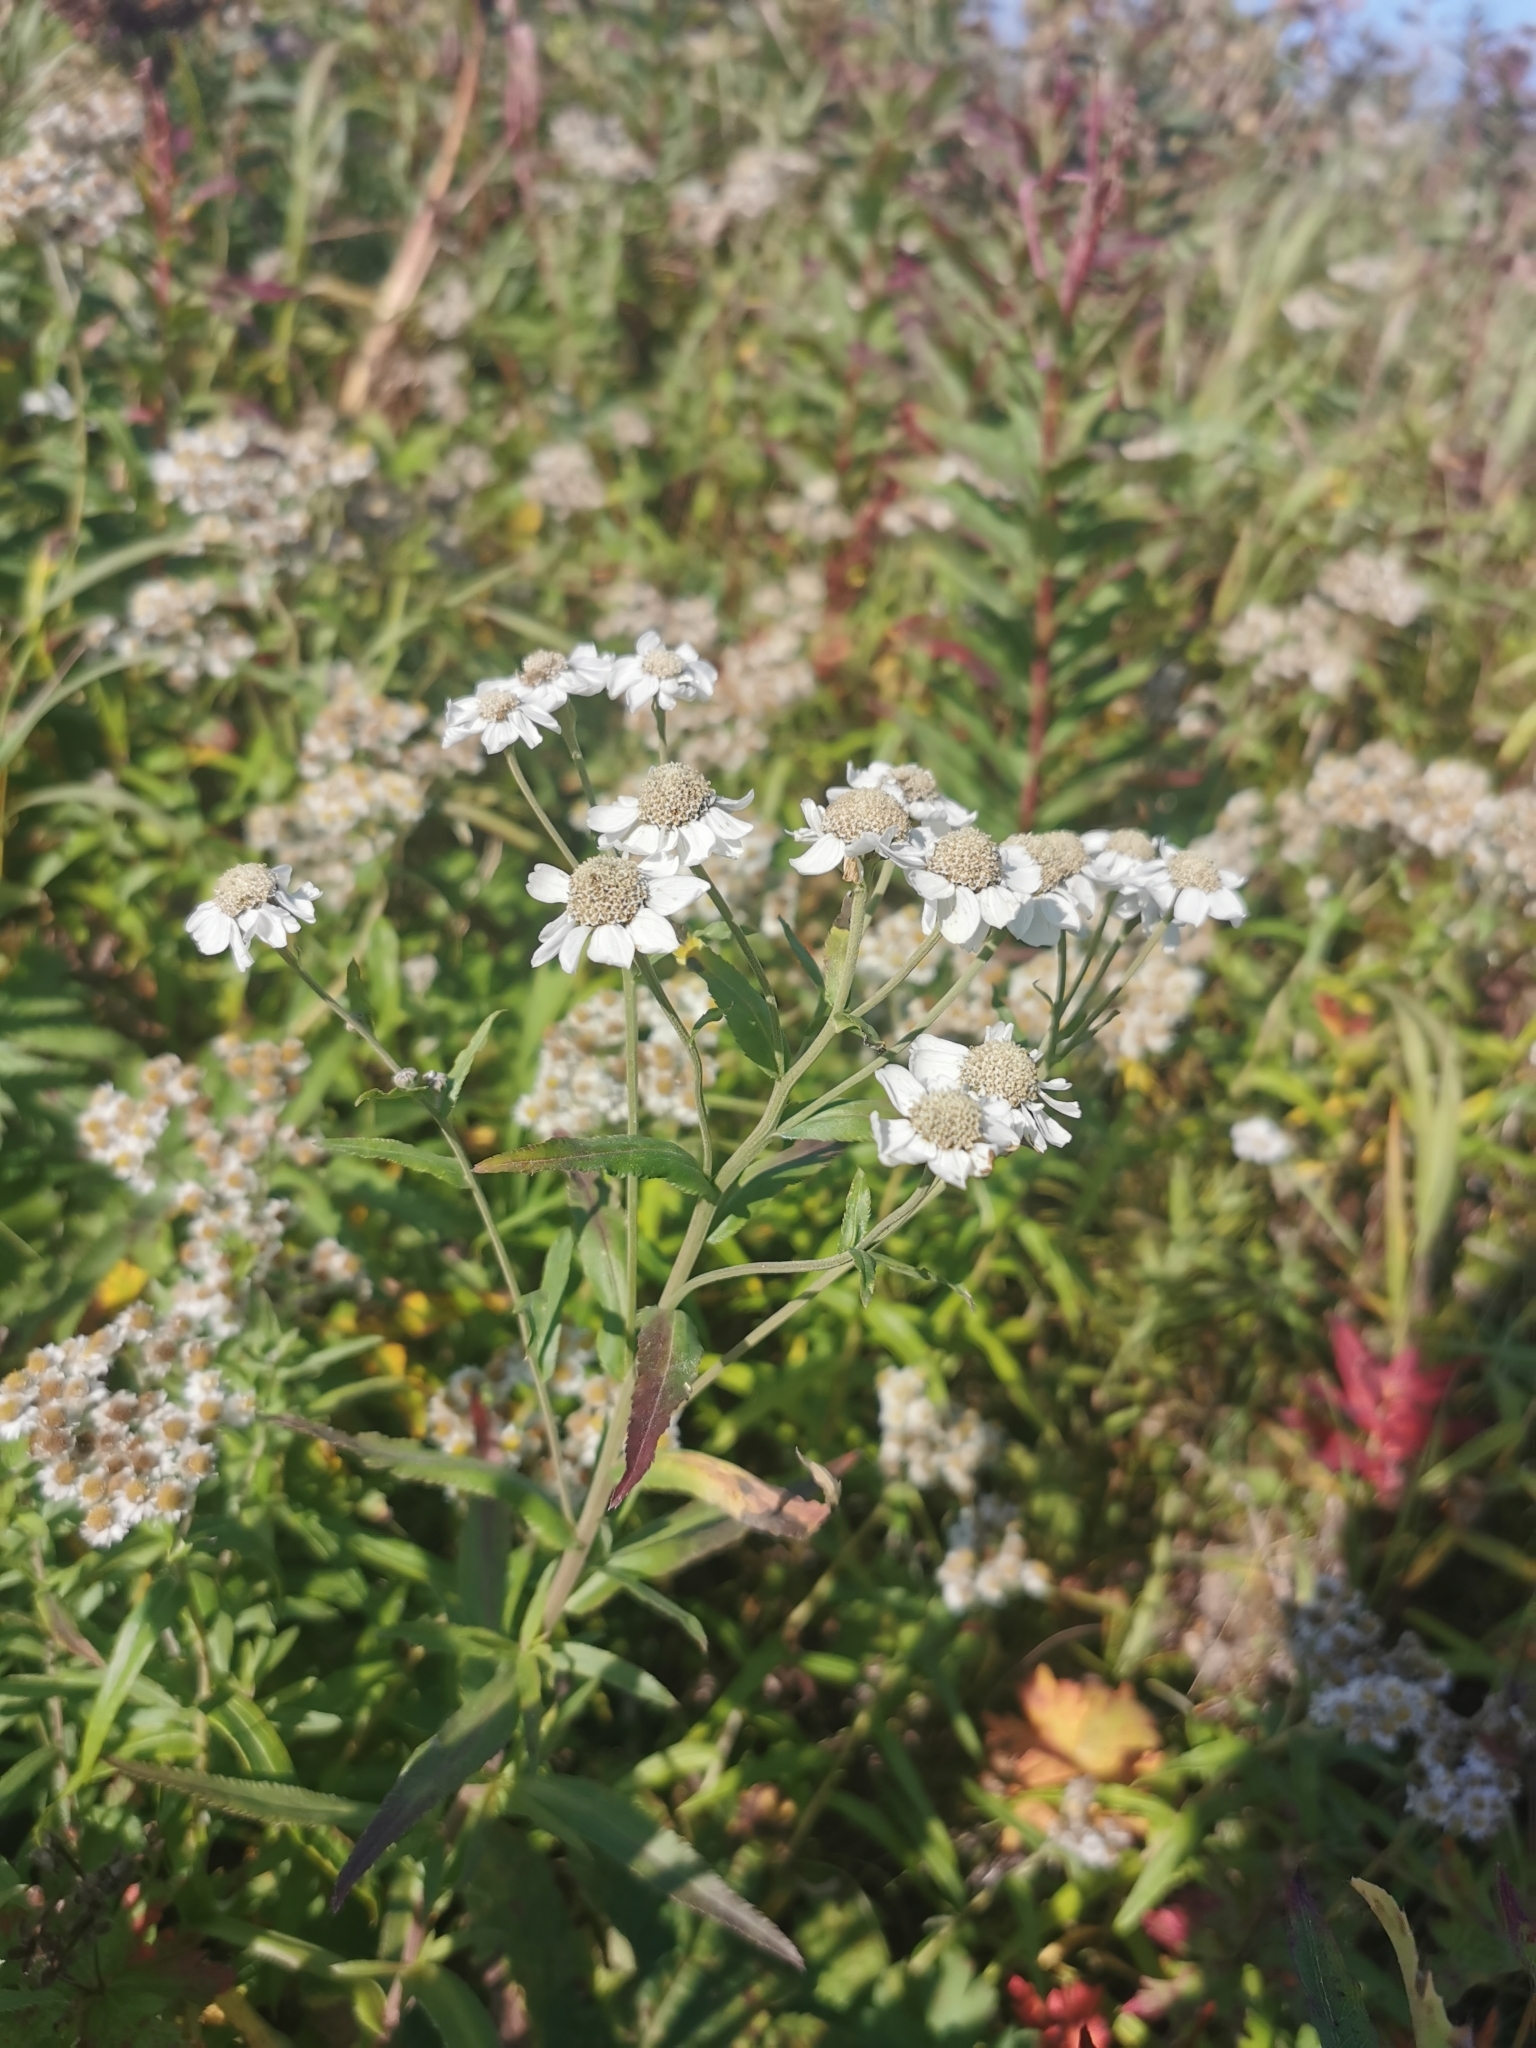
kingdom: Plantae
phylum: Tracheophyta
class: Magnoliopsida
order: Asterales
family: Asteraceae
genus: Achillea
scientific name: Achillea ptarmica
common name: Sneezeweed
